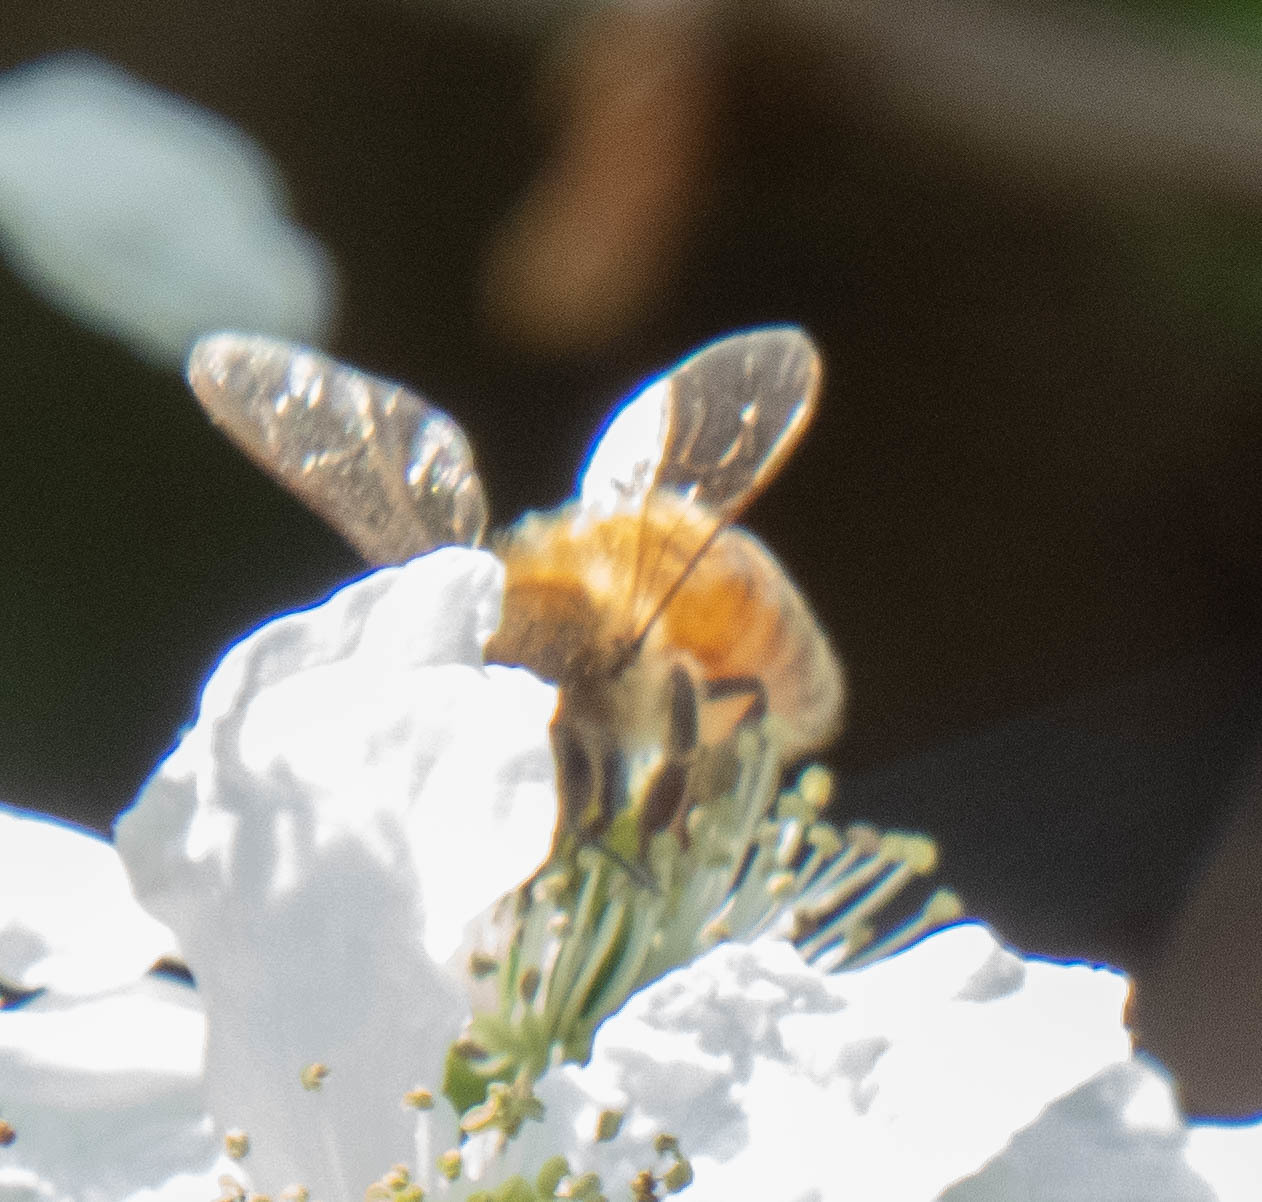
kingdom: Animalia
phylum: Arthropoda
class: Insecta
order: Hymenoptera
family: Apidae
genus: Apis
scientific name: Apis mellifera
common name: Honey bee
